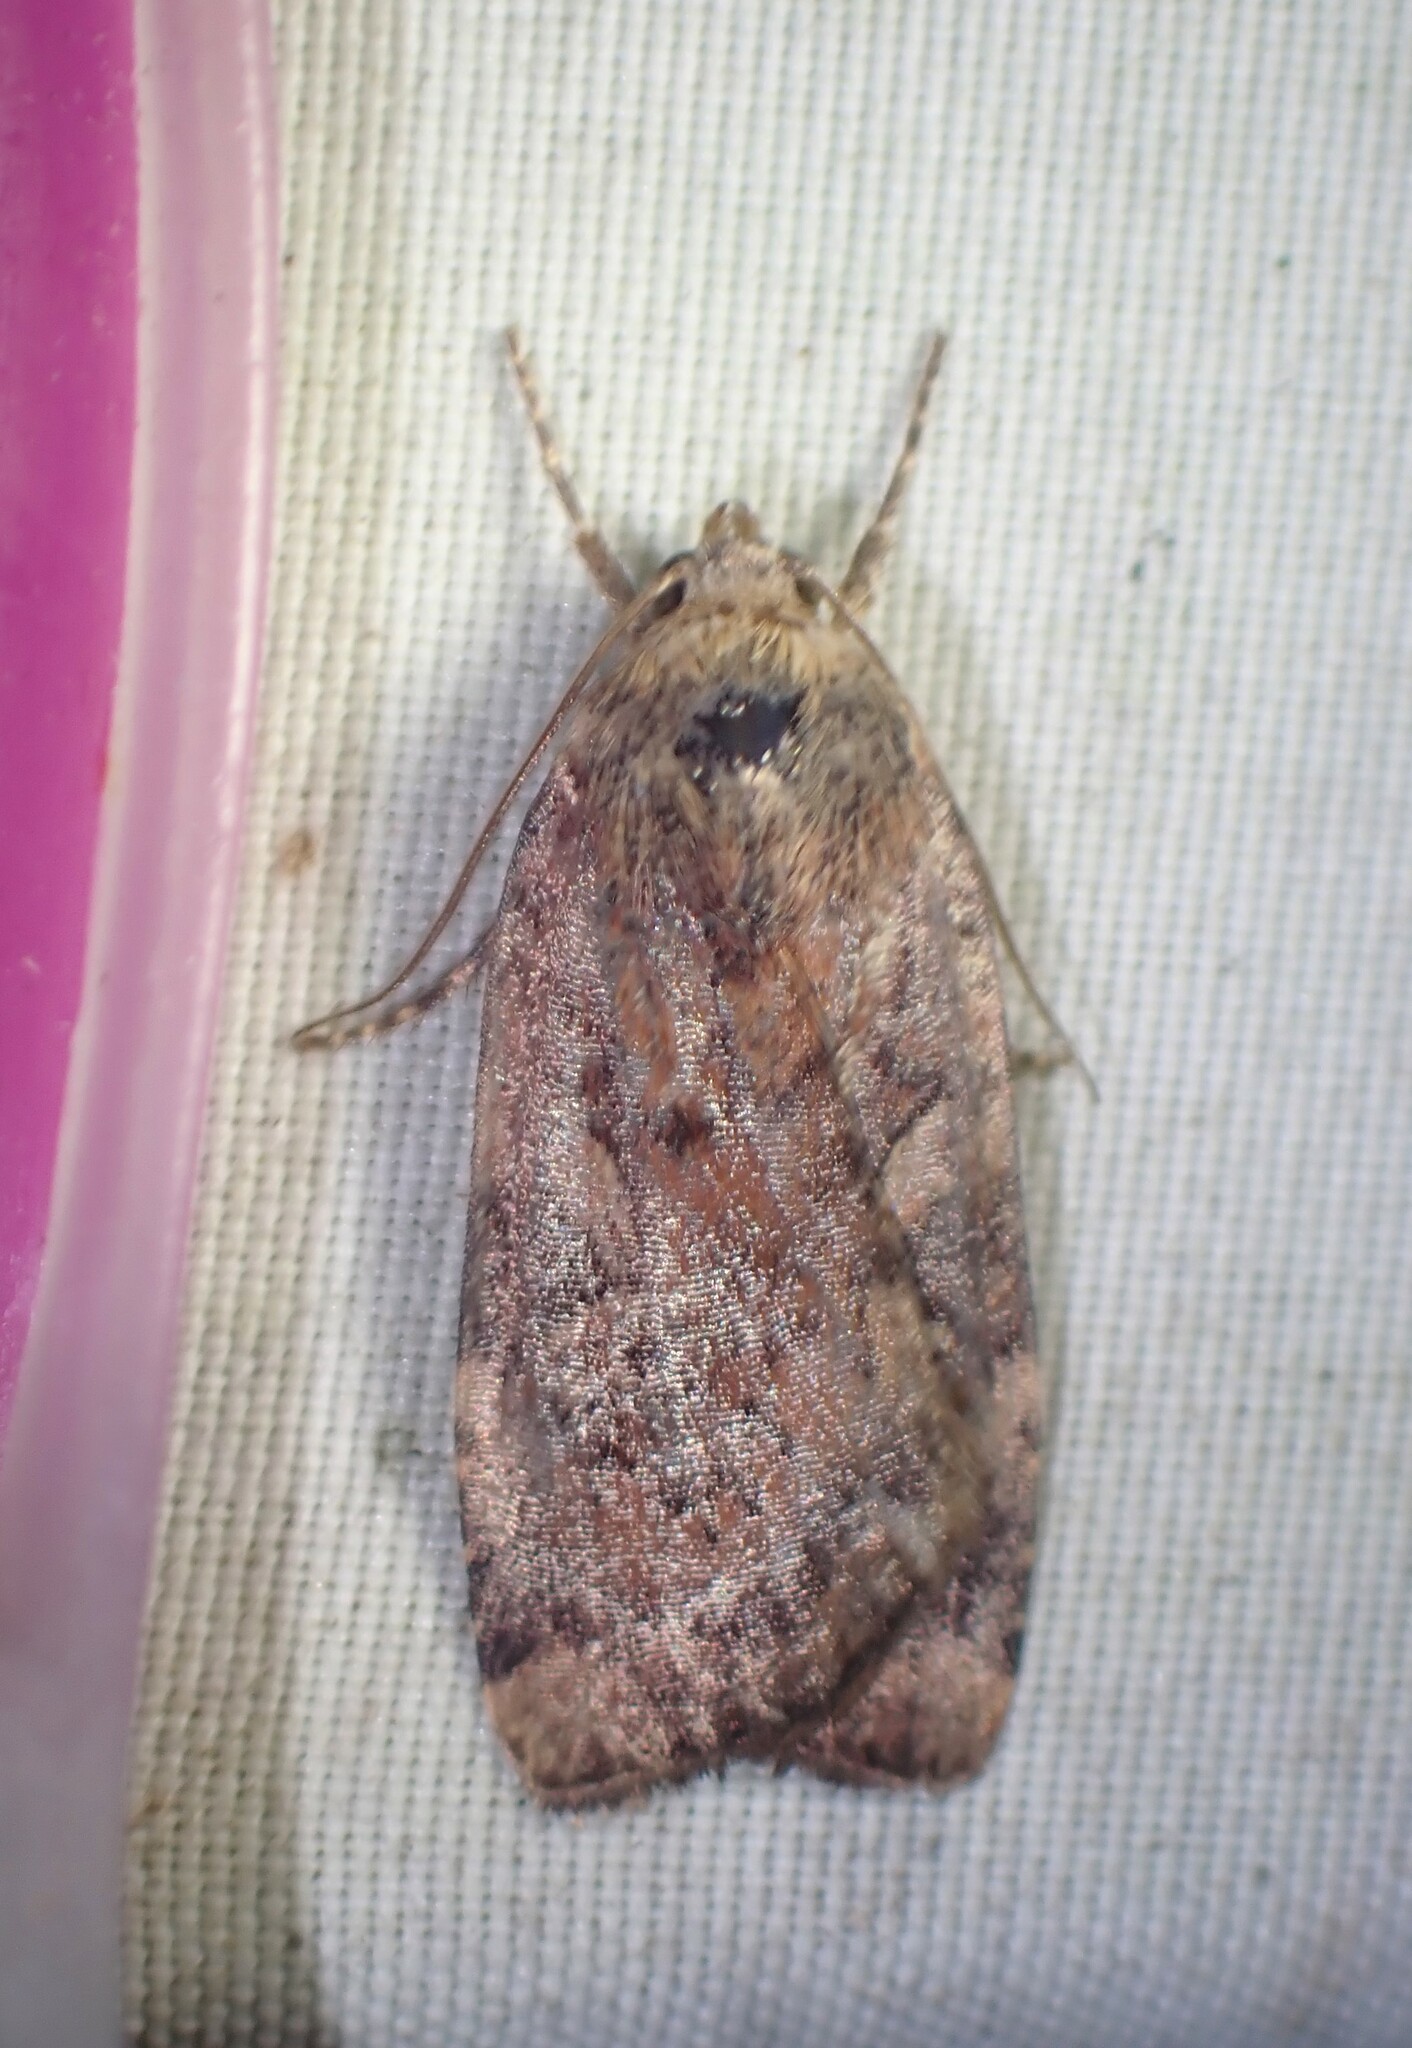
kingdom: Animalia
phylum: Arthropoda
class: Insecta
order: Lepidoptera
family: Noctuidae
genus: Cryptocala
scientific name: Cryptocala acadiensis
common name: Catocaline dart
